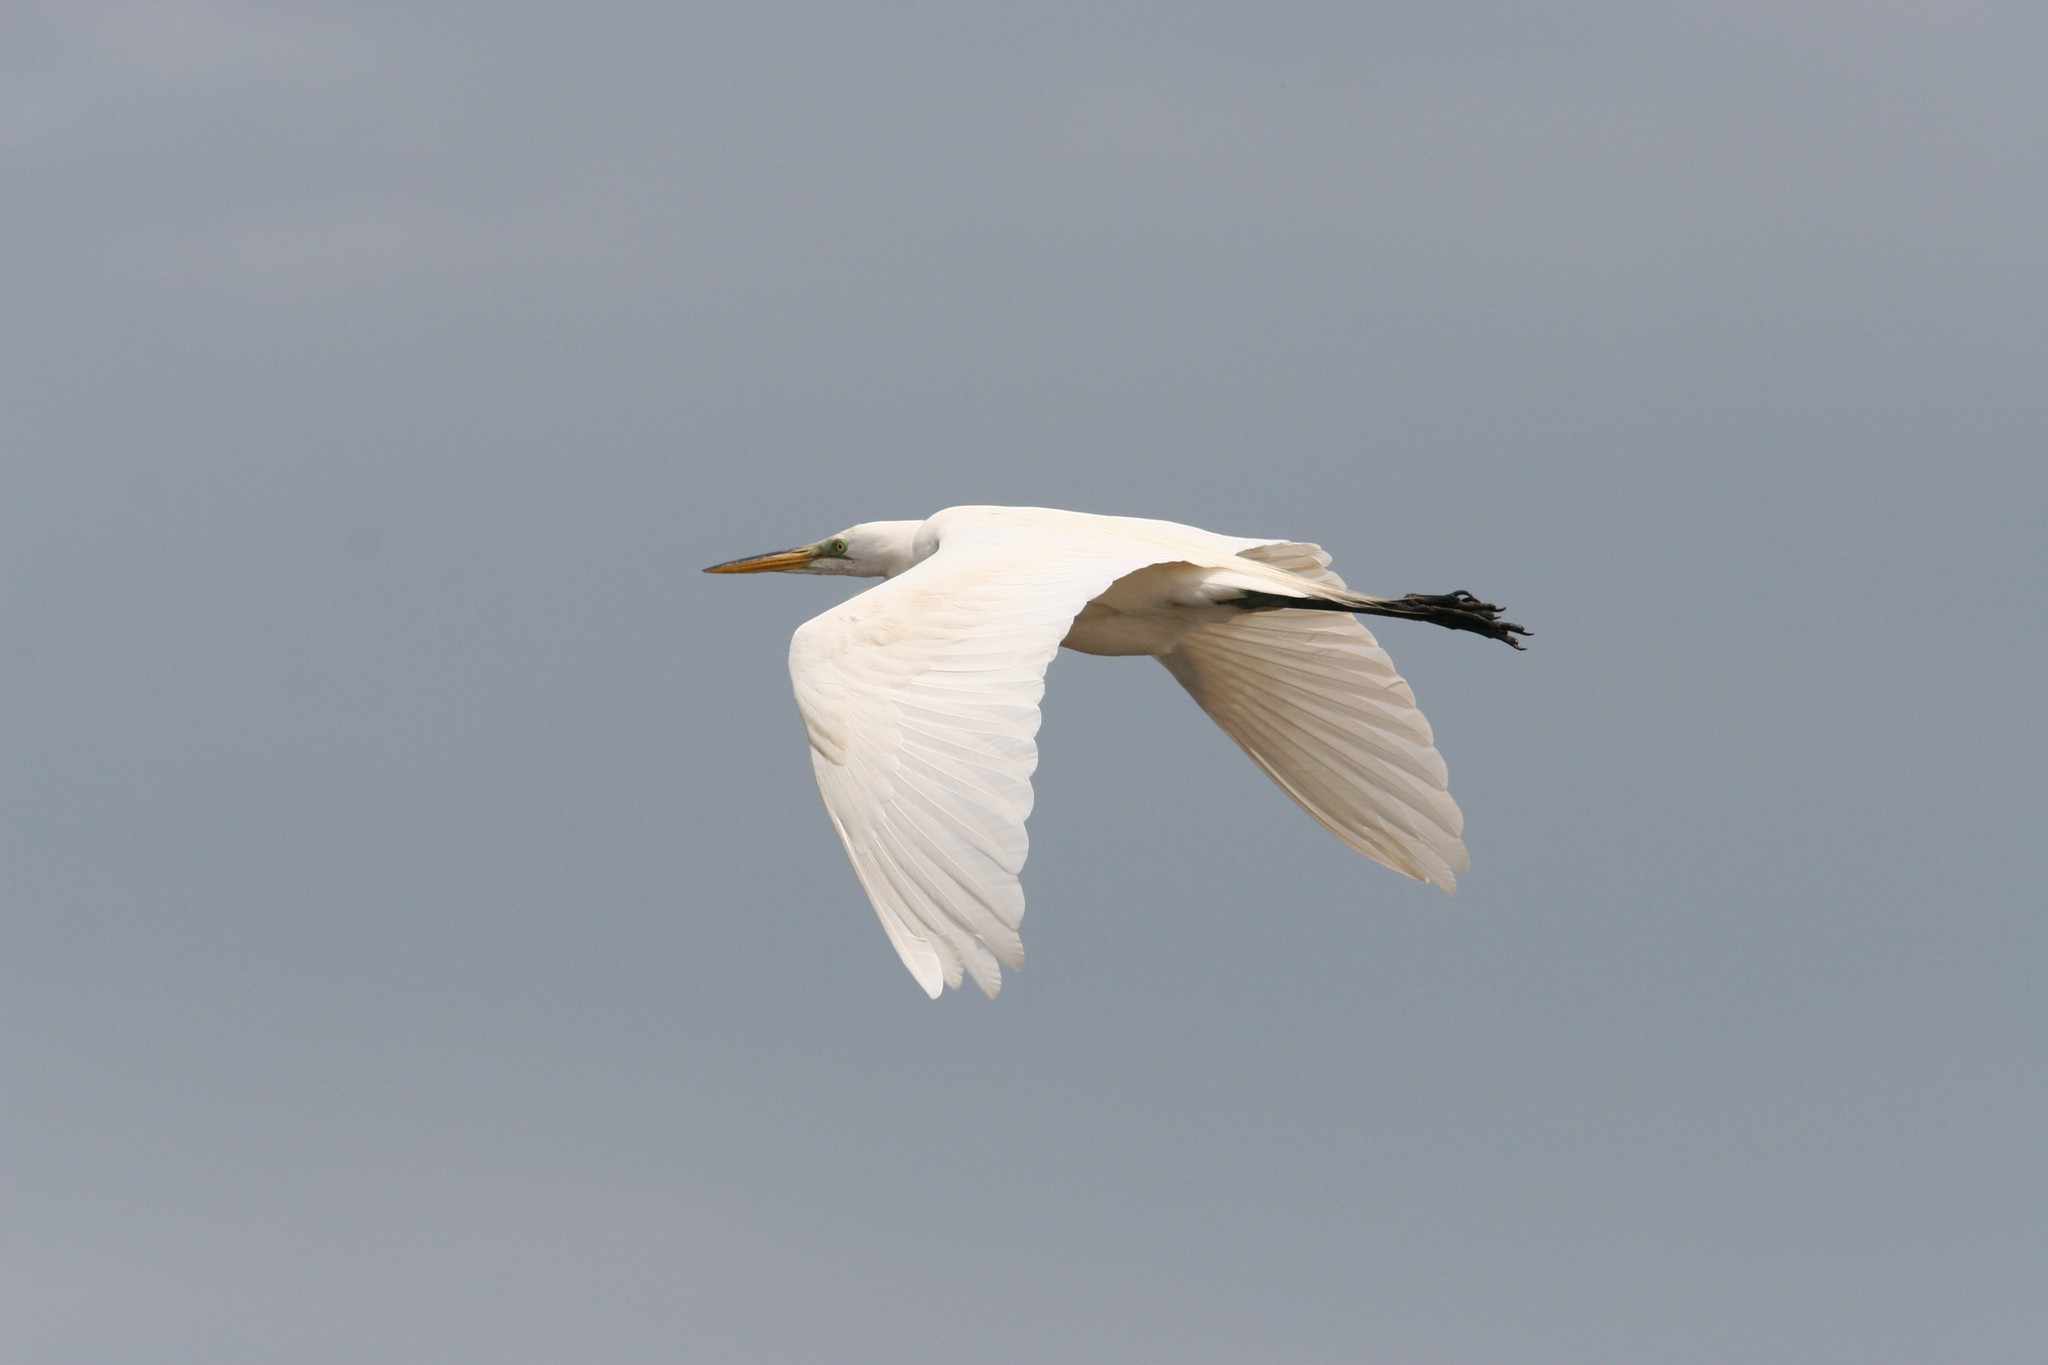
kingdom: Animalia
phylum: Chordata
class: Aves
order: Pelecaniformes
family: Ardeidae
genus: Ardea
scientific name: Ardea alba
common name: Great egret
